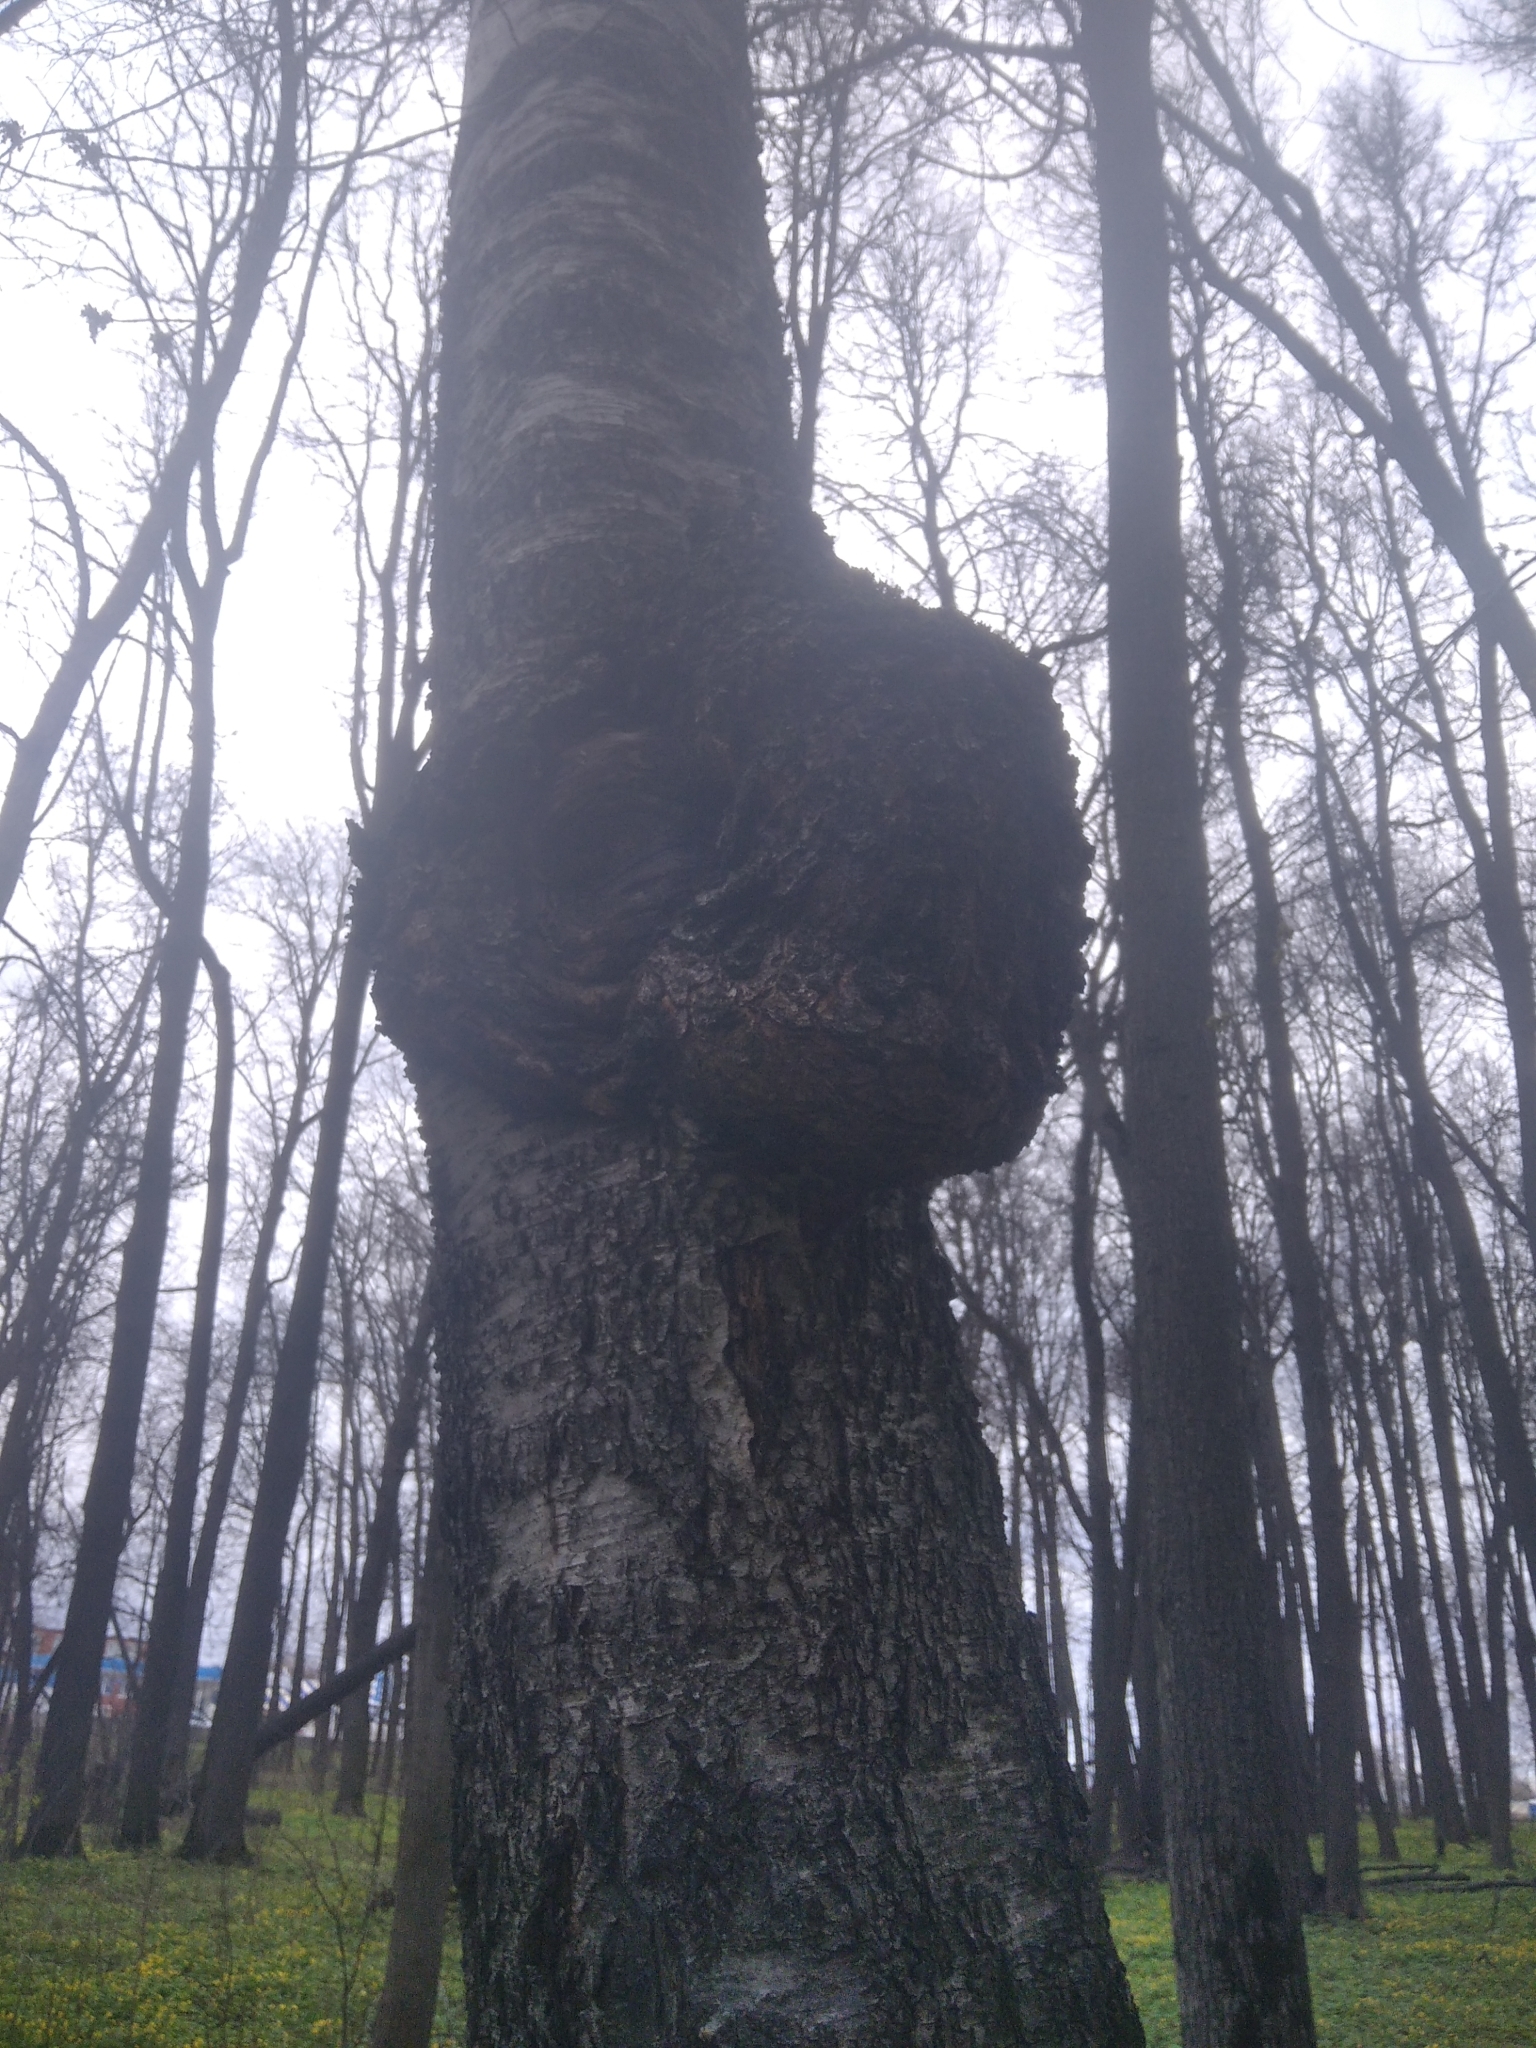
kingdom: Plantae
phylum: Tracheophyta
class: Magnoliopsida
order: Fagales
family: Betulaceae
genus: Betula
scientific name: Betula pendula
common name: Silver birch
